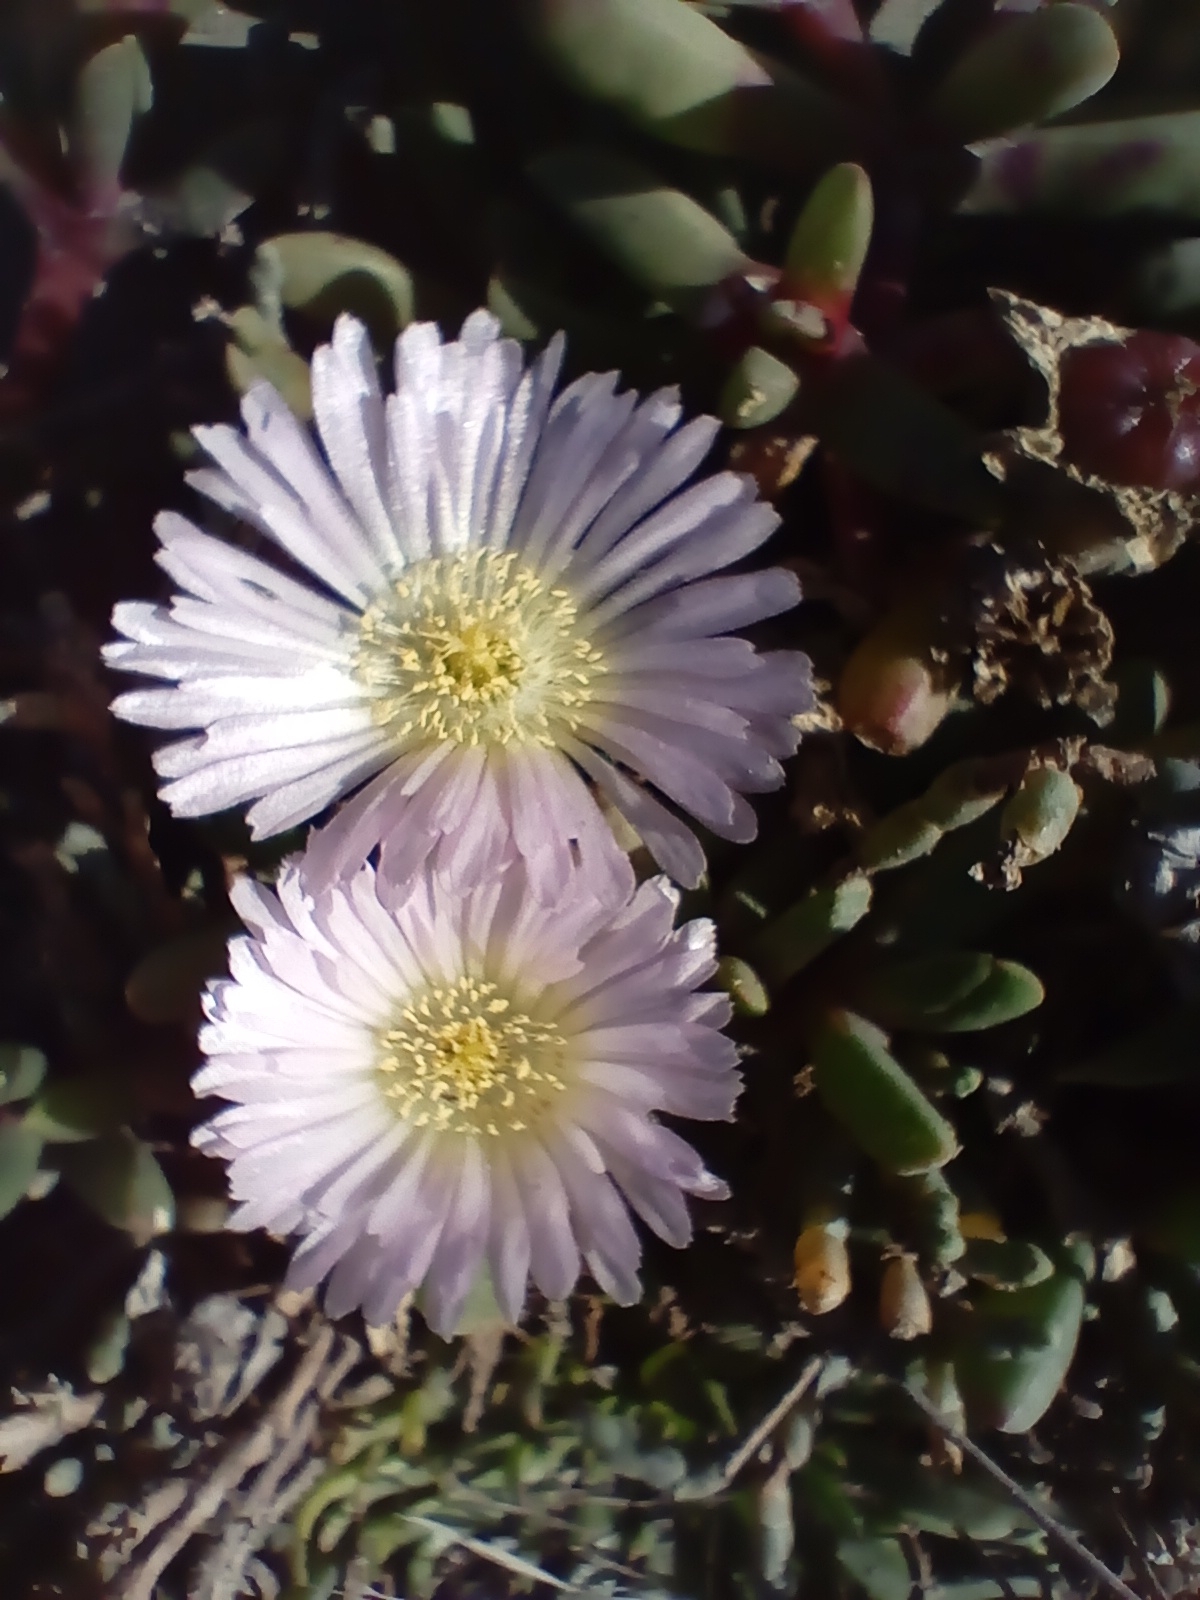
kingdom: Plantae
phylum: Tracheophyta
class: Magnoliopsida
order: Caryophyllales
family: Aizoaceae
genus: Disphyma
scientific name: Disphyma australe
